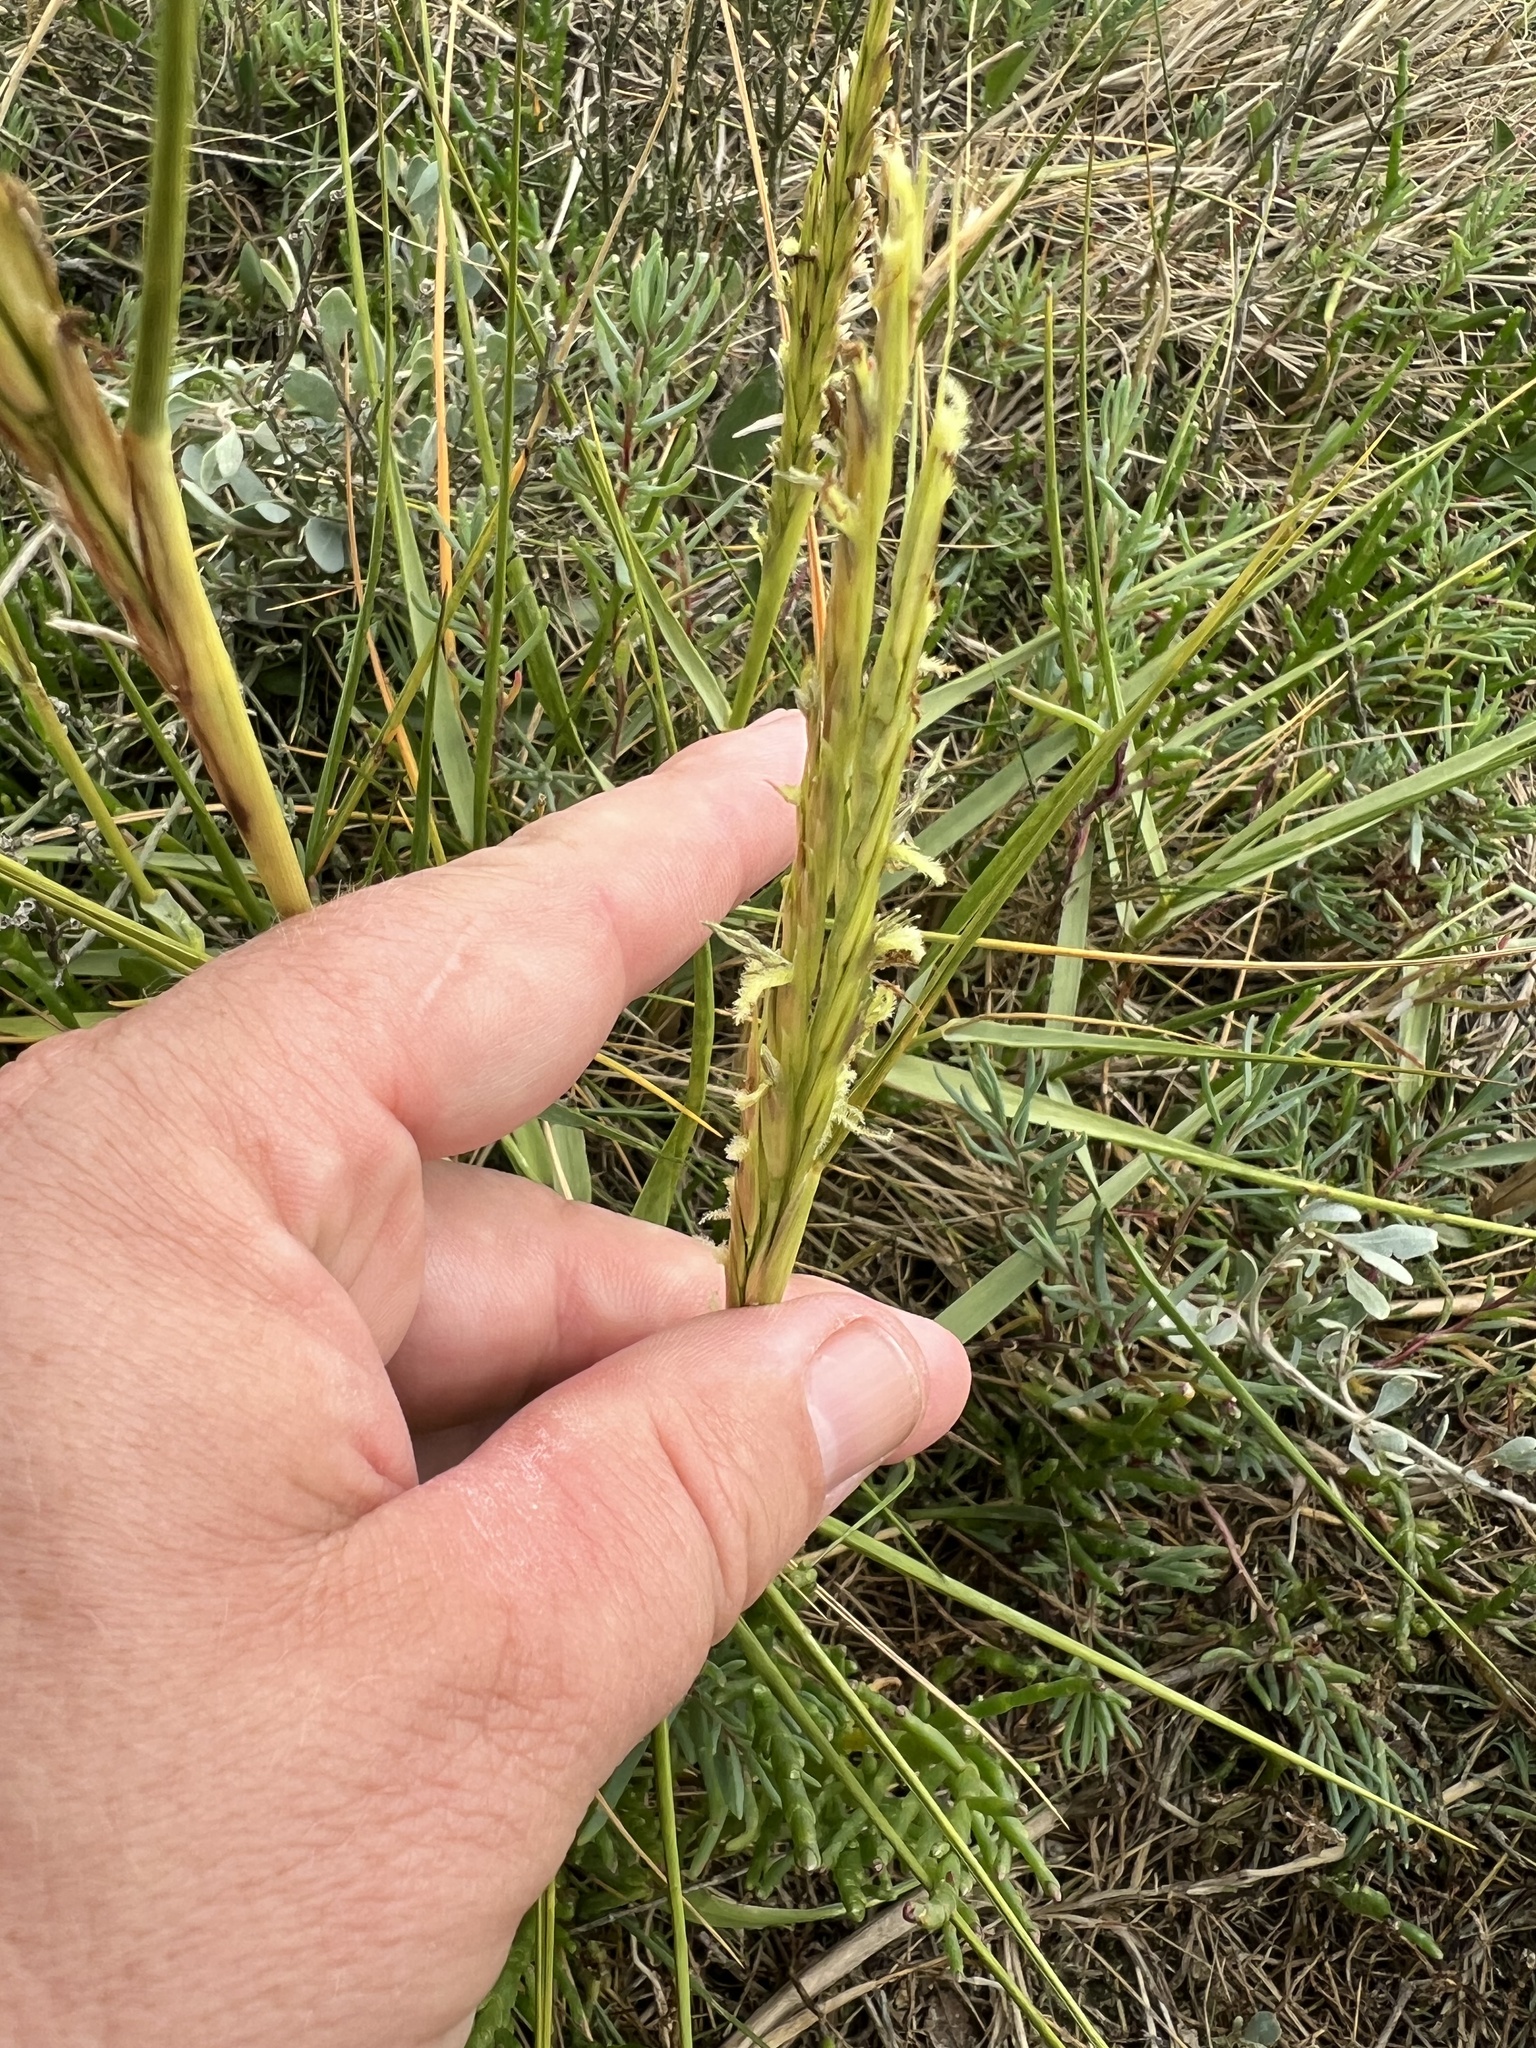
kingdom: Plantae
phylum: Tracheophyta
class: Liliopsida
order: Poales
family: Poaceae
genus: Sporobolus
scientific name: Sporobolus anglicus
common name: English cordgrass
